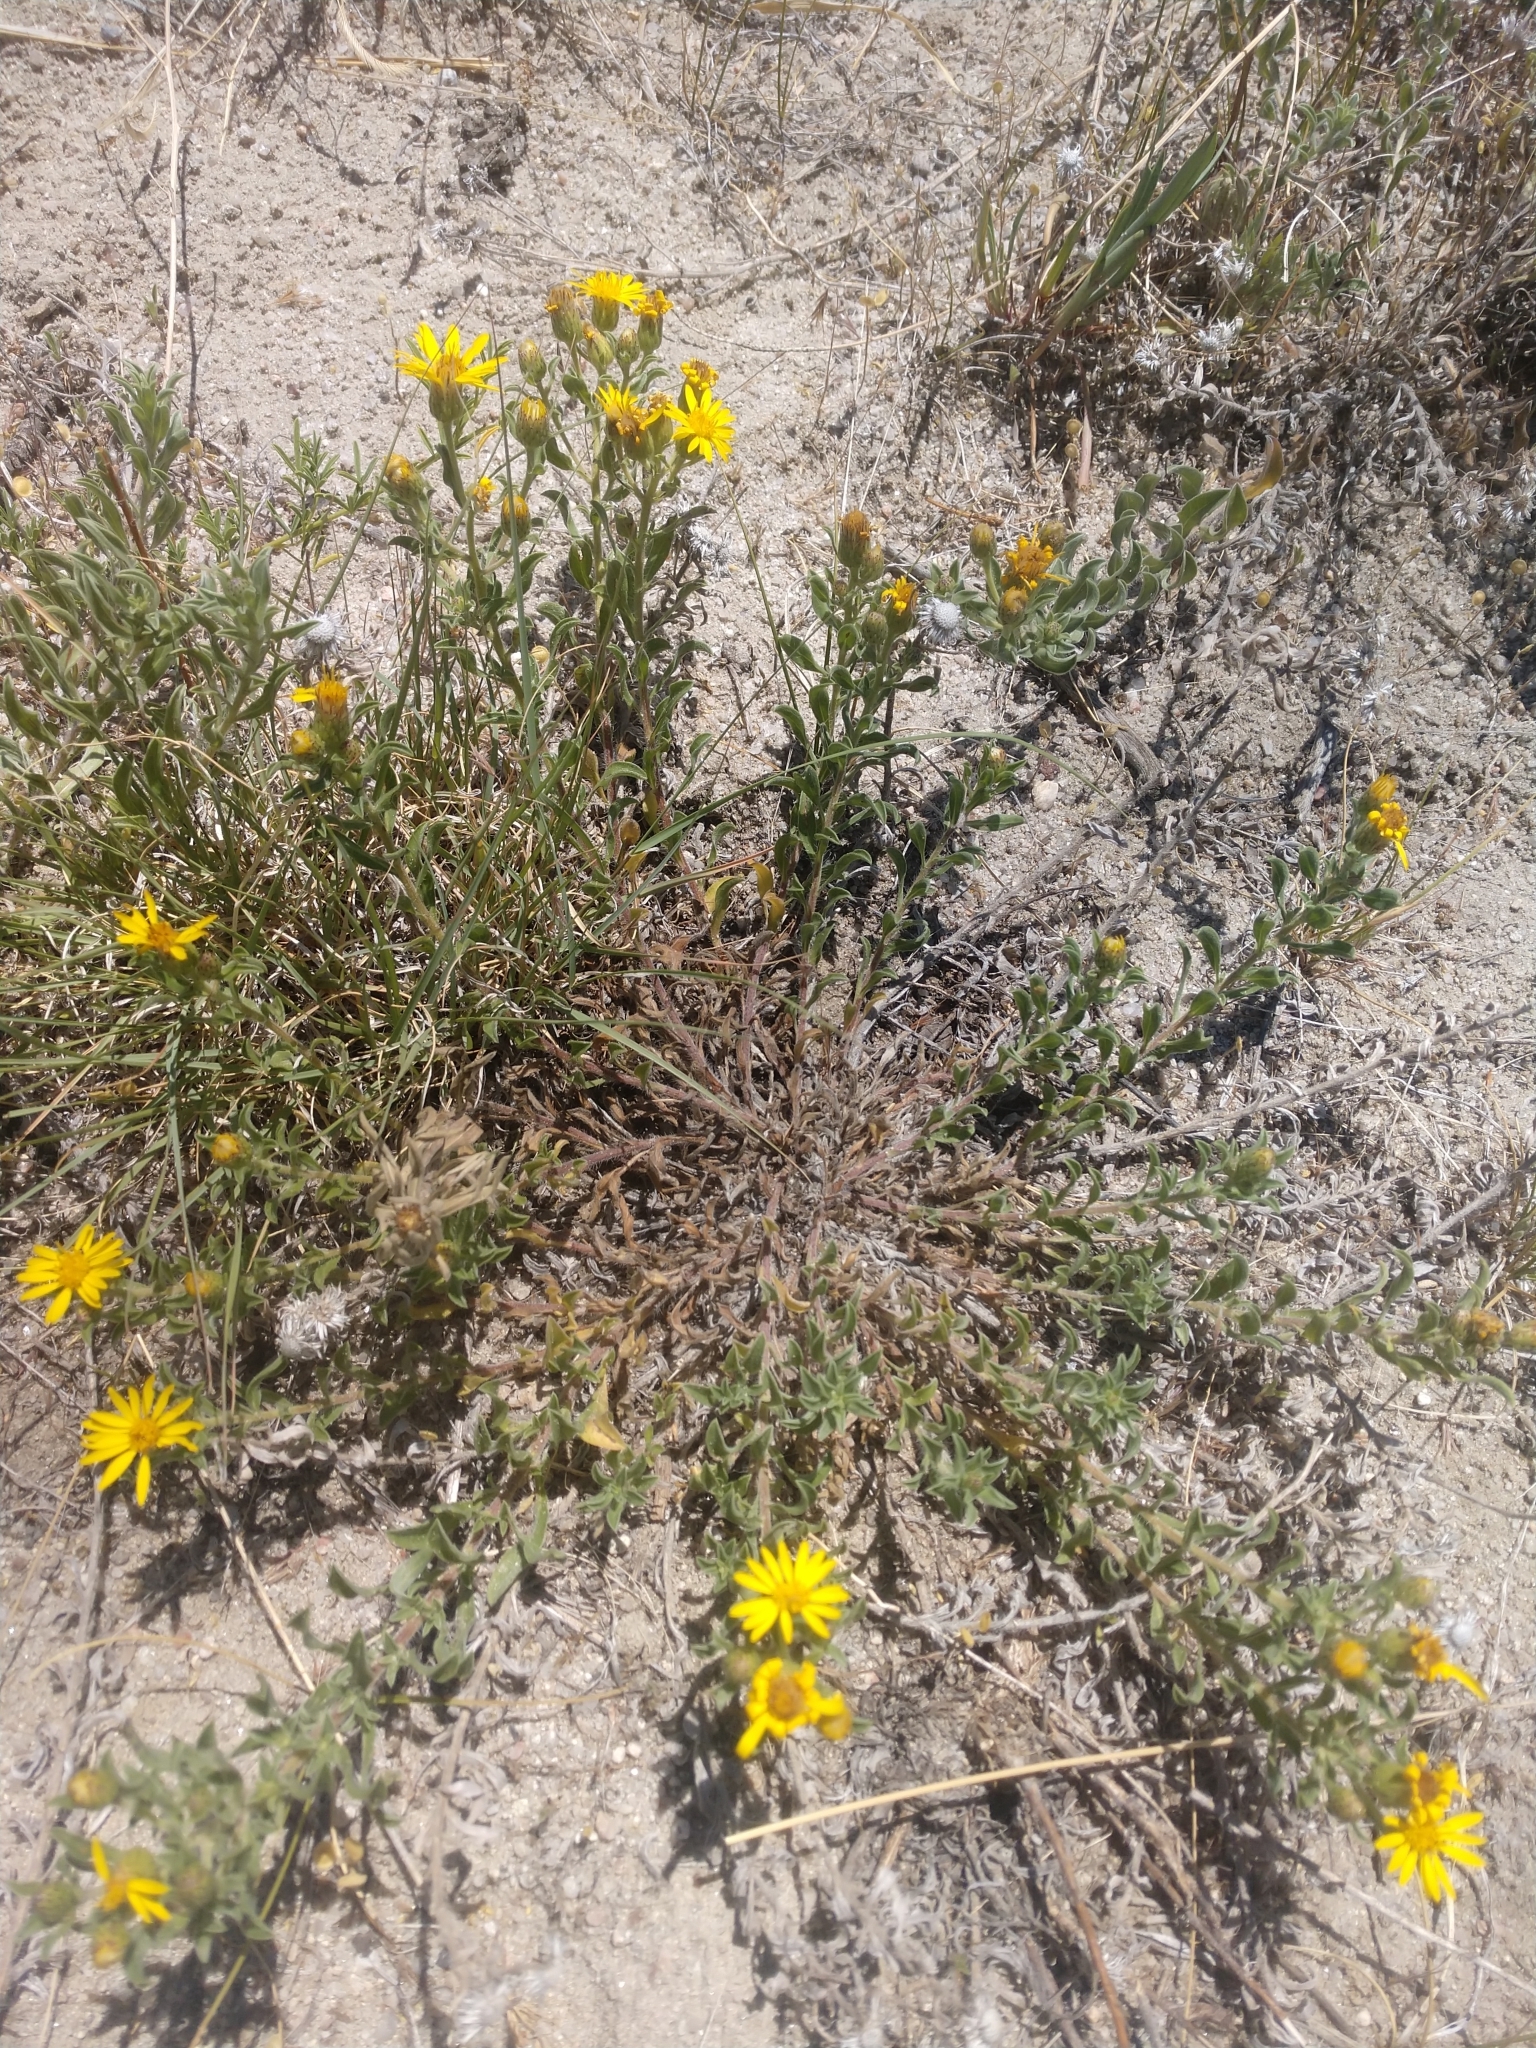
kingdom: Plantae
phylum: Tracheophyta
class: Magnoliopsida
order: Asterales
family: Asteraceae
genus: Heterotheca
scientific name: Heterotheca villosa
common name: Hairy false goldenaster
